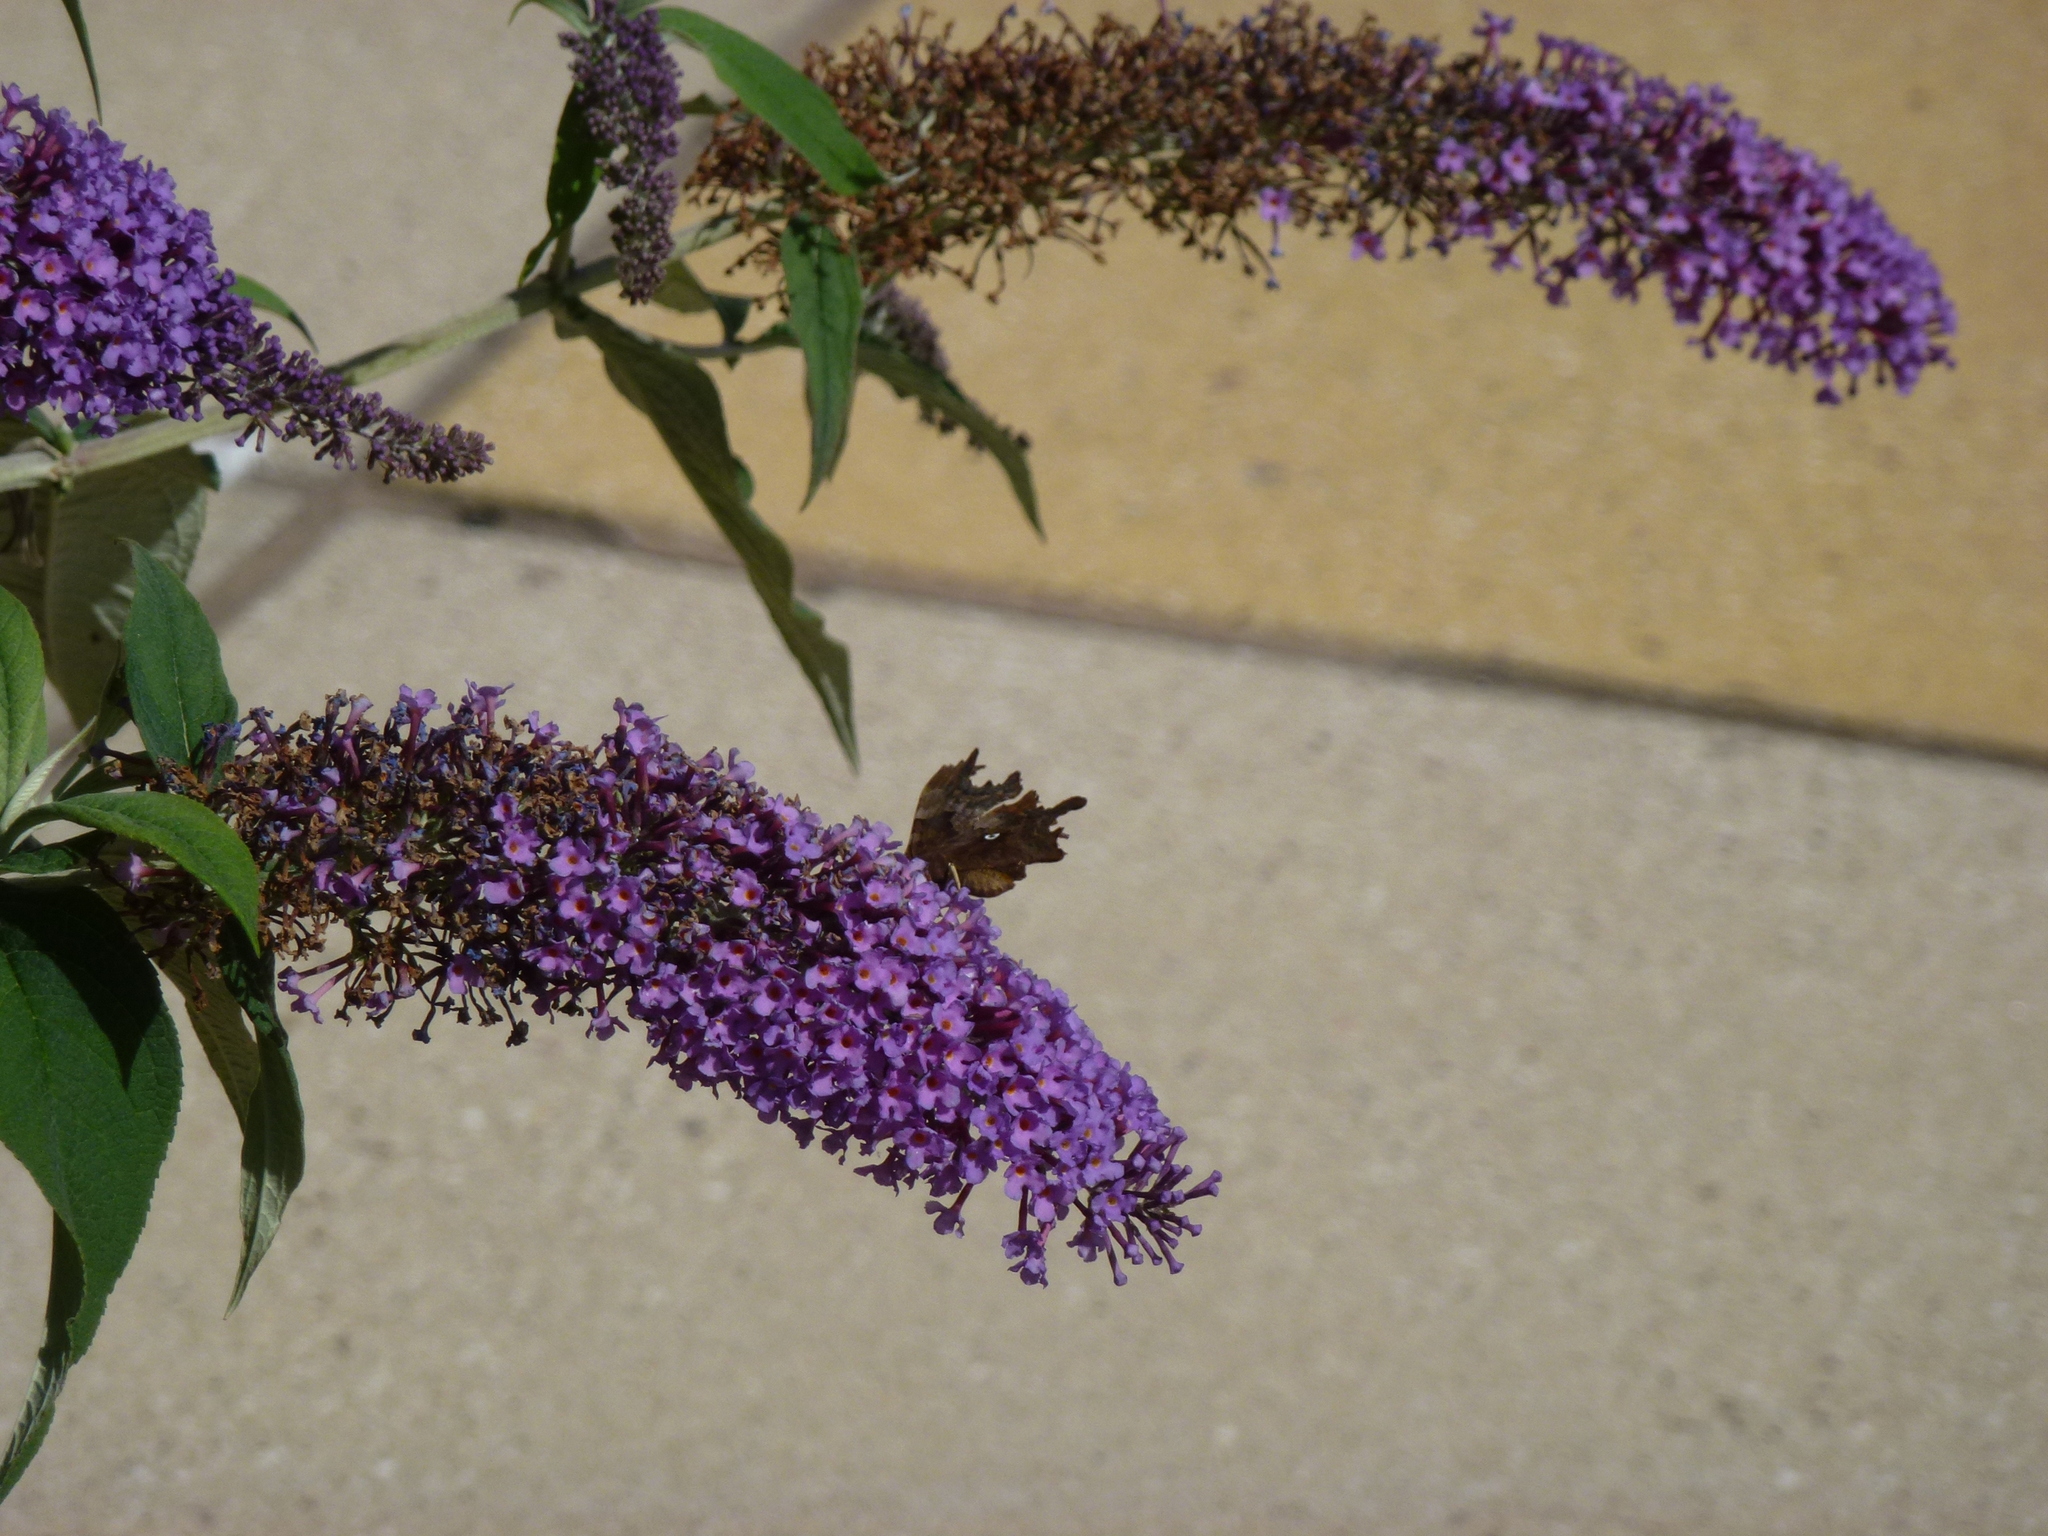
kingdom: Animalia
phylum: Arthropoda
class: Insecta
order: Lepidoptera
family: Nymphalidae
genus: Polygonia
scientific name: Polygonia c-album
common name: Comma
